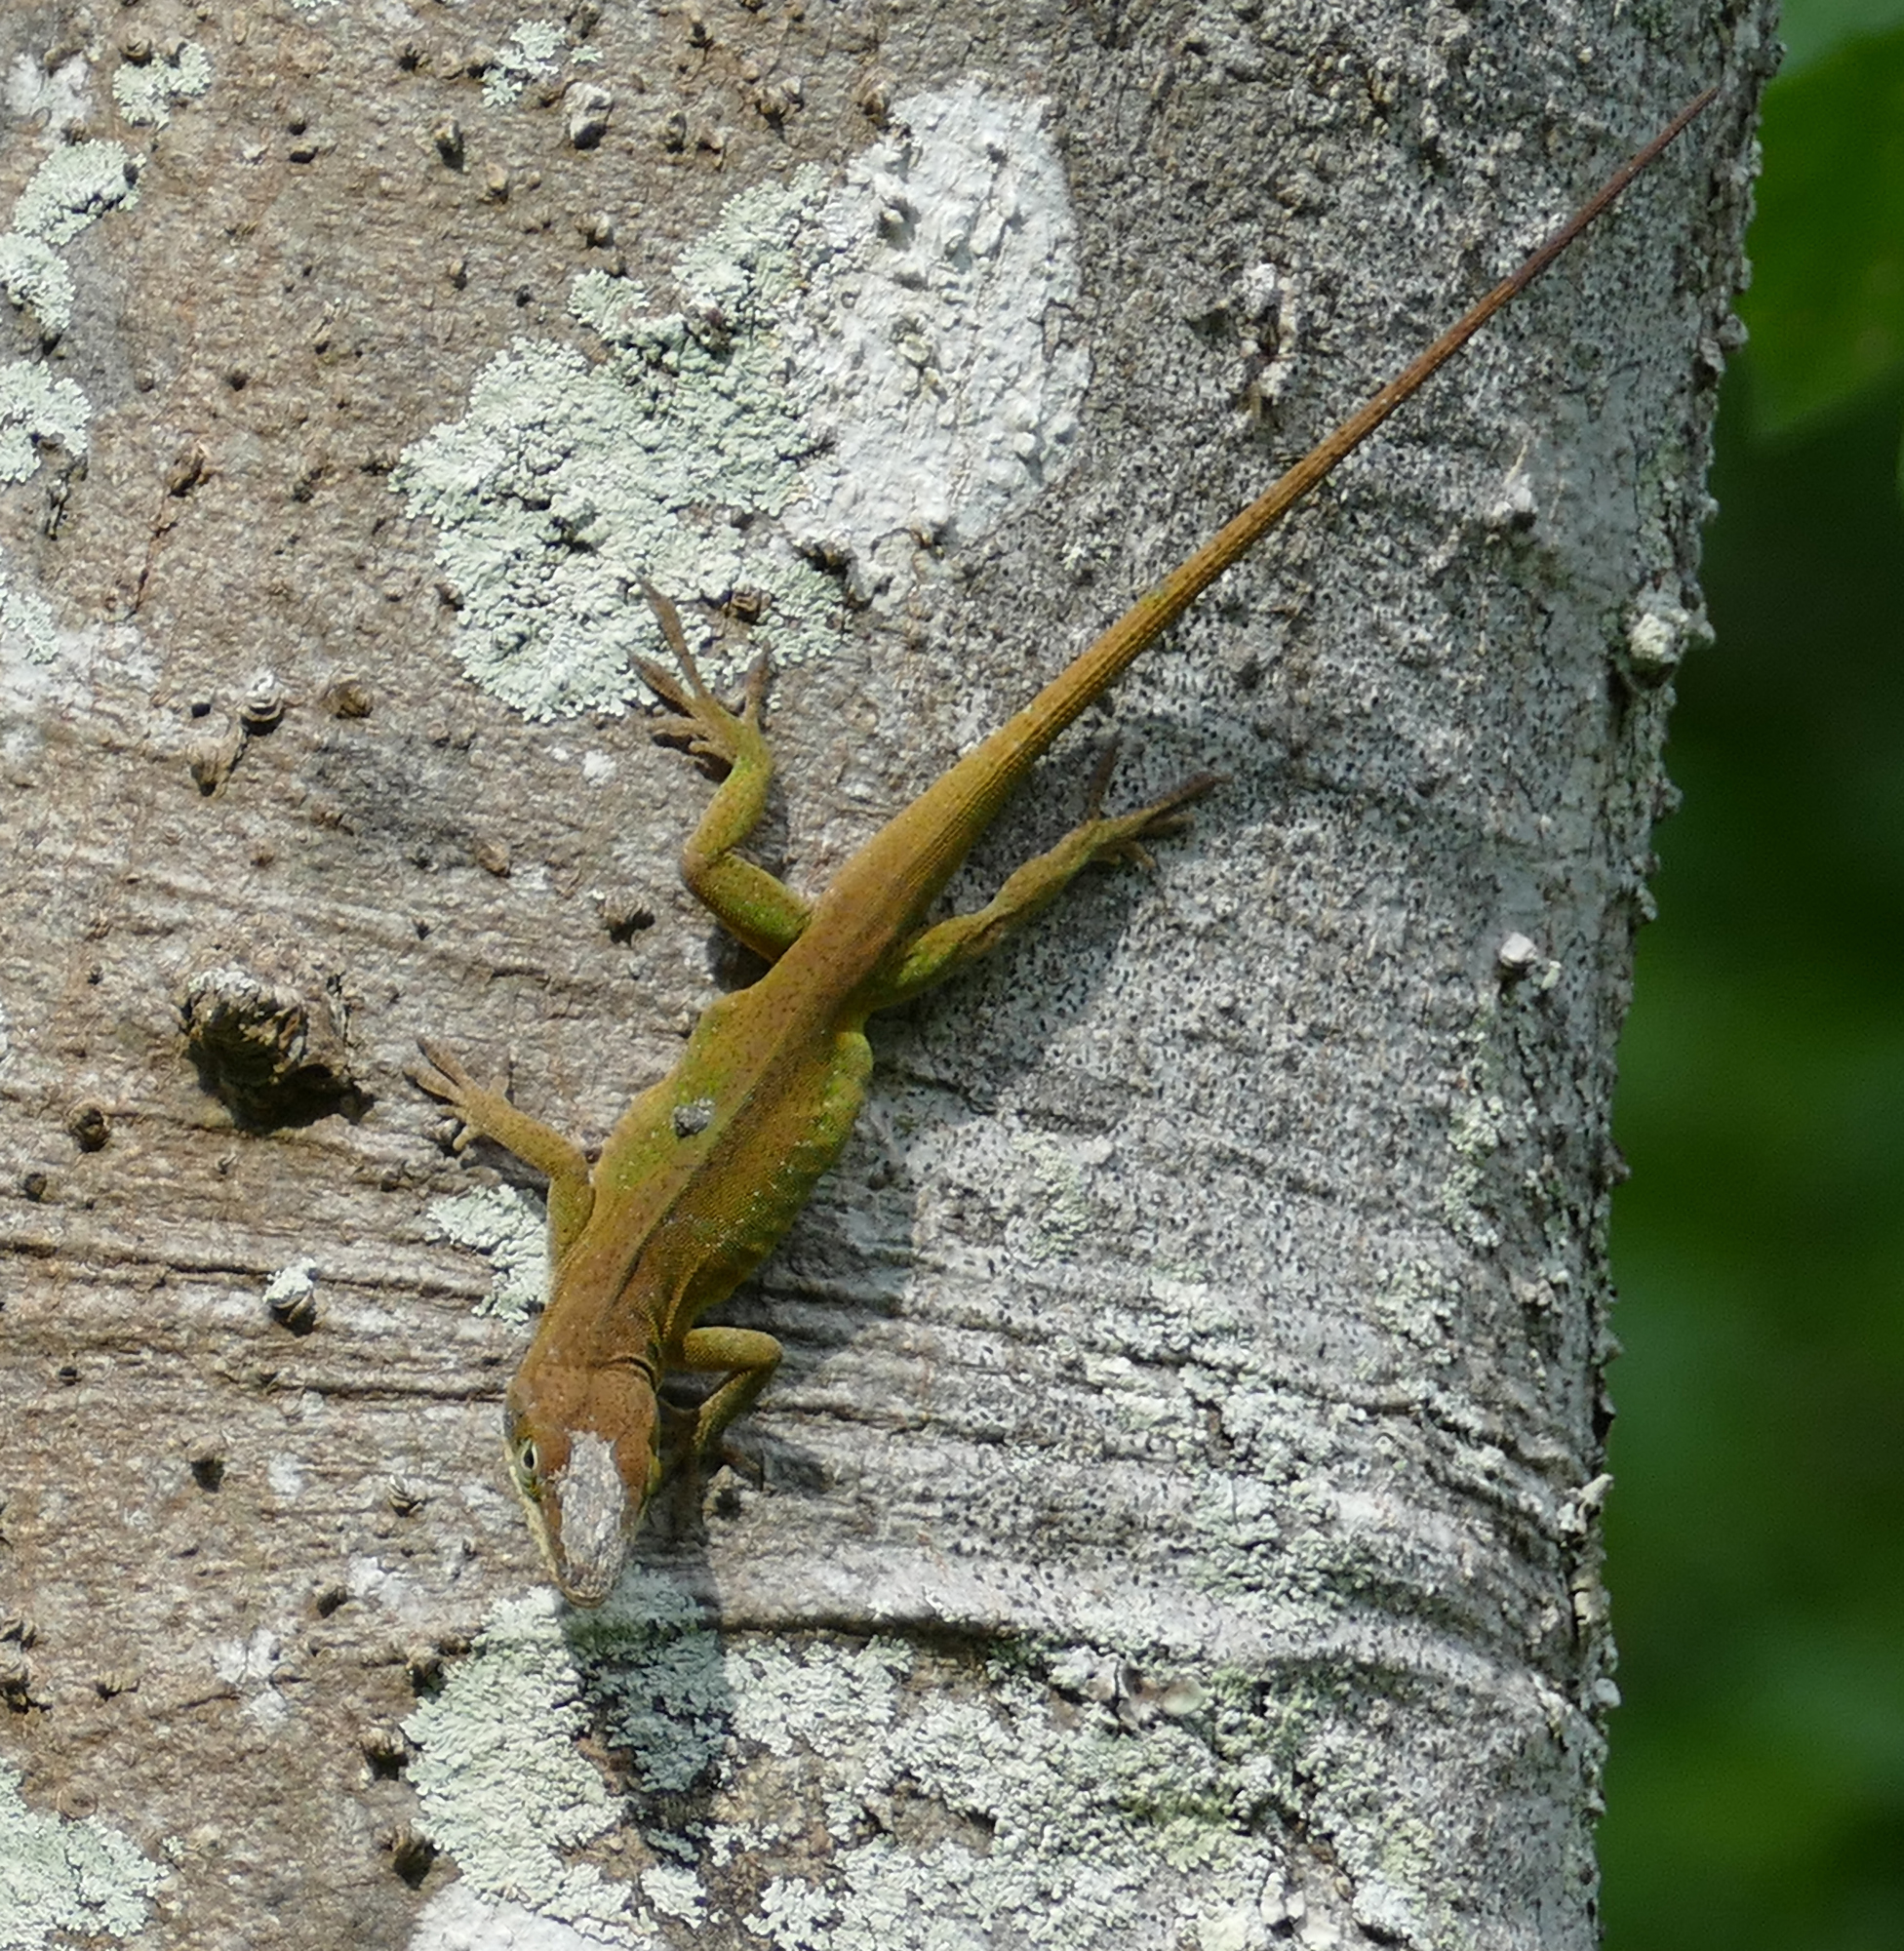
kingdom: Animalia
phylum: Chordata
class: Squamata
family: Dactyloidae
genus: Anolis
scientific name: Anolis carolinensis
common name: Green anole
